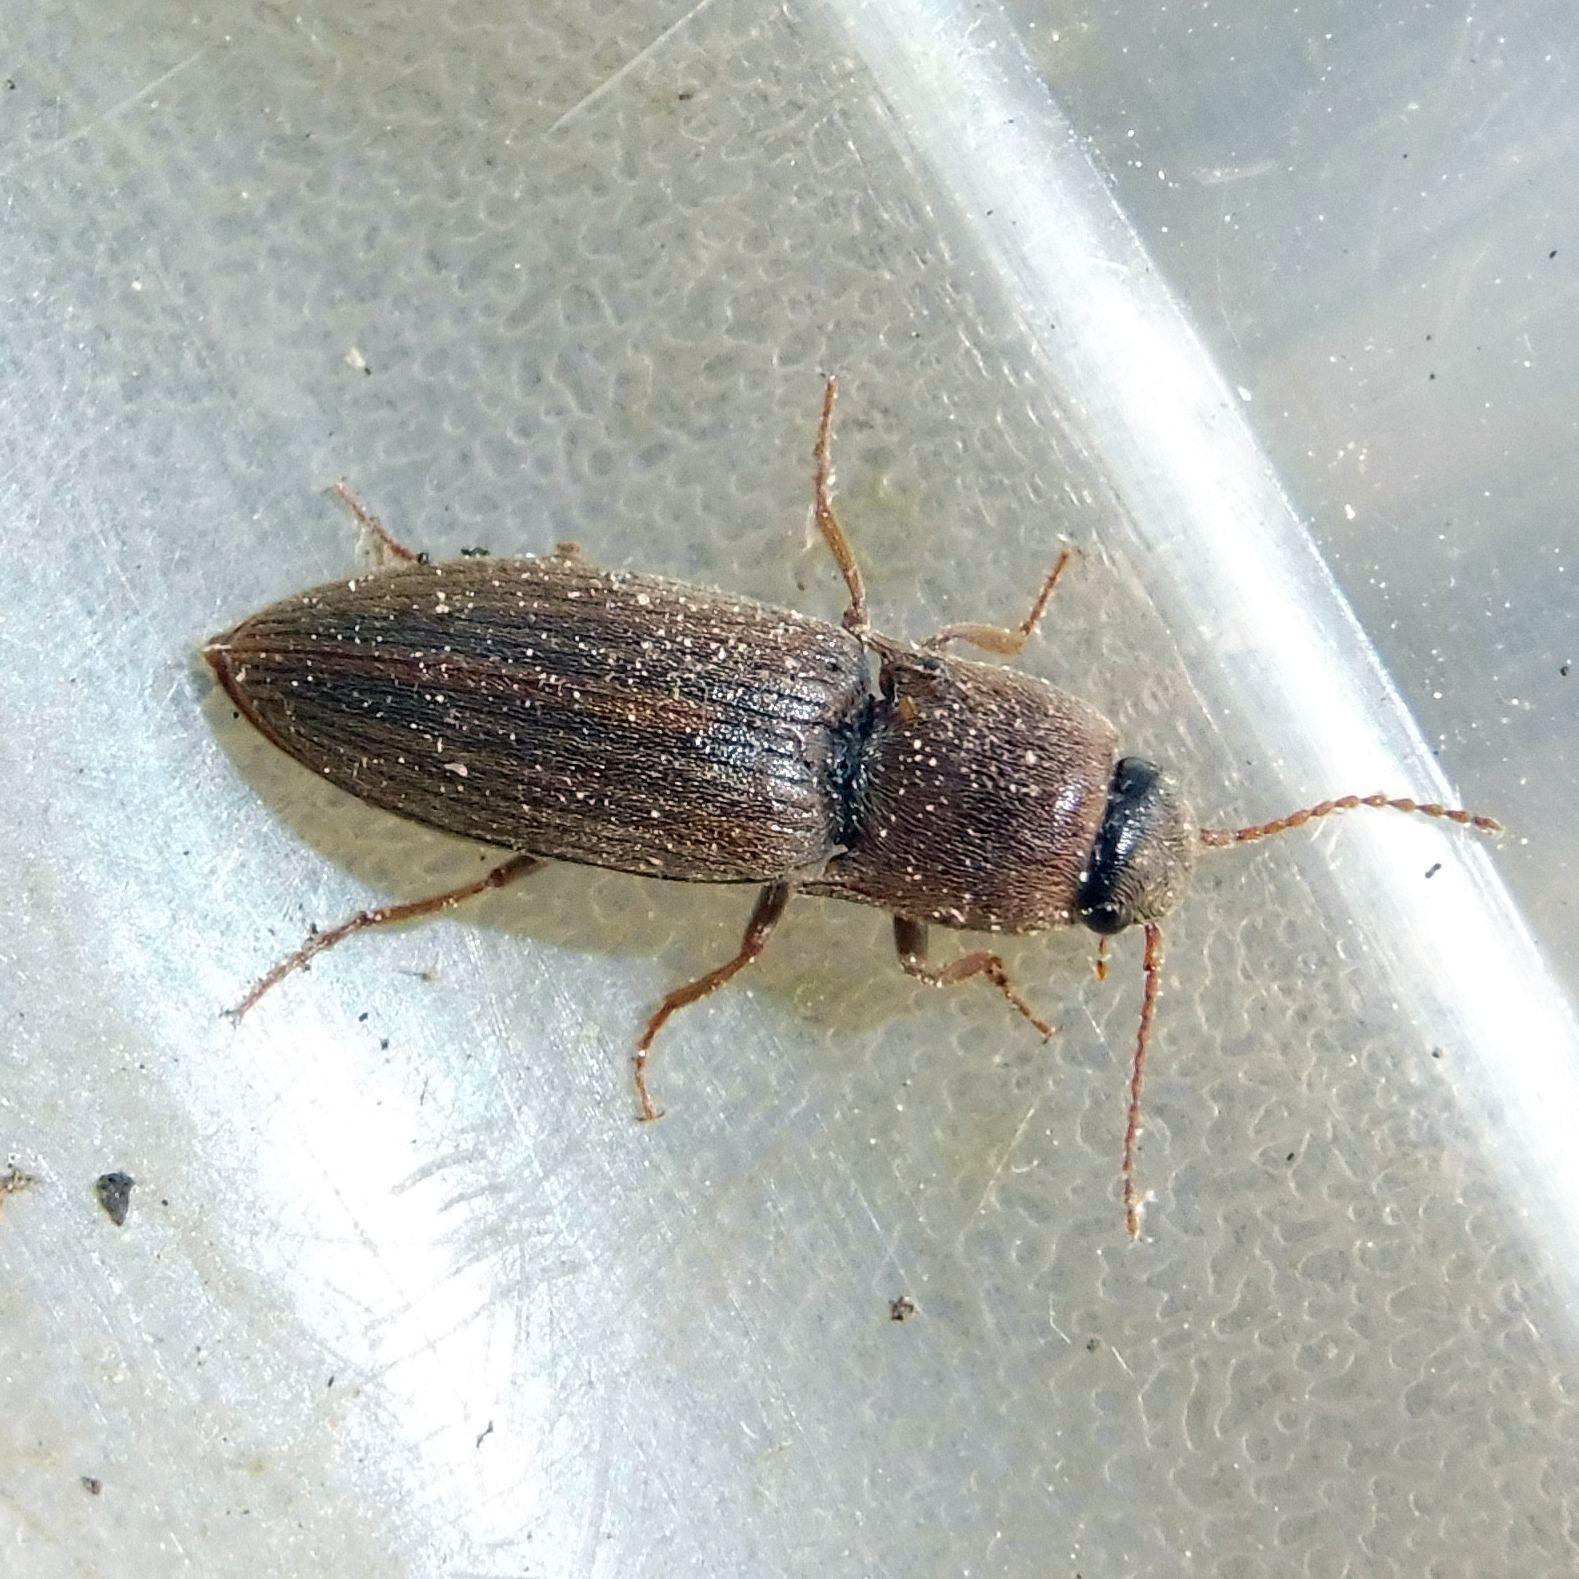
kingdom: Animalia
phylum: Arthropoda
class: Insecta
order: Coleoptera
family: Elateridae
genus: Agriotes
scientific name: Agriotes lineatus
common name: Lined click beetle
